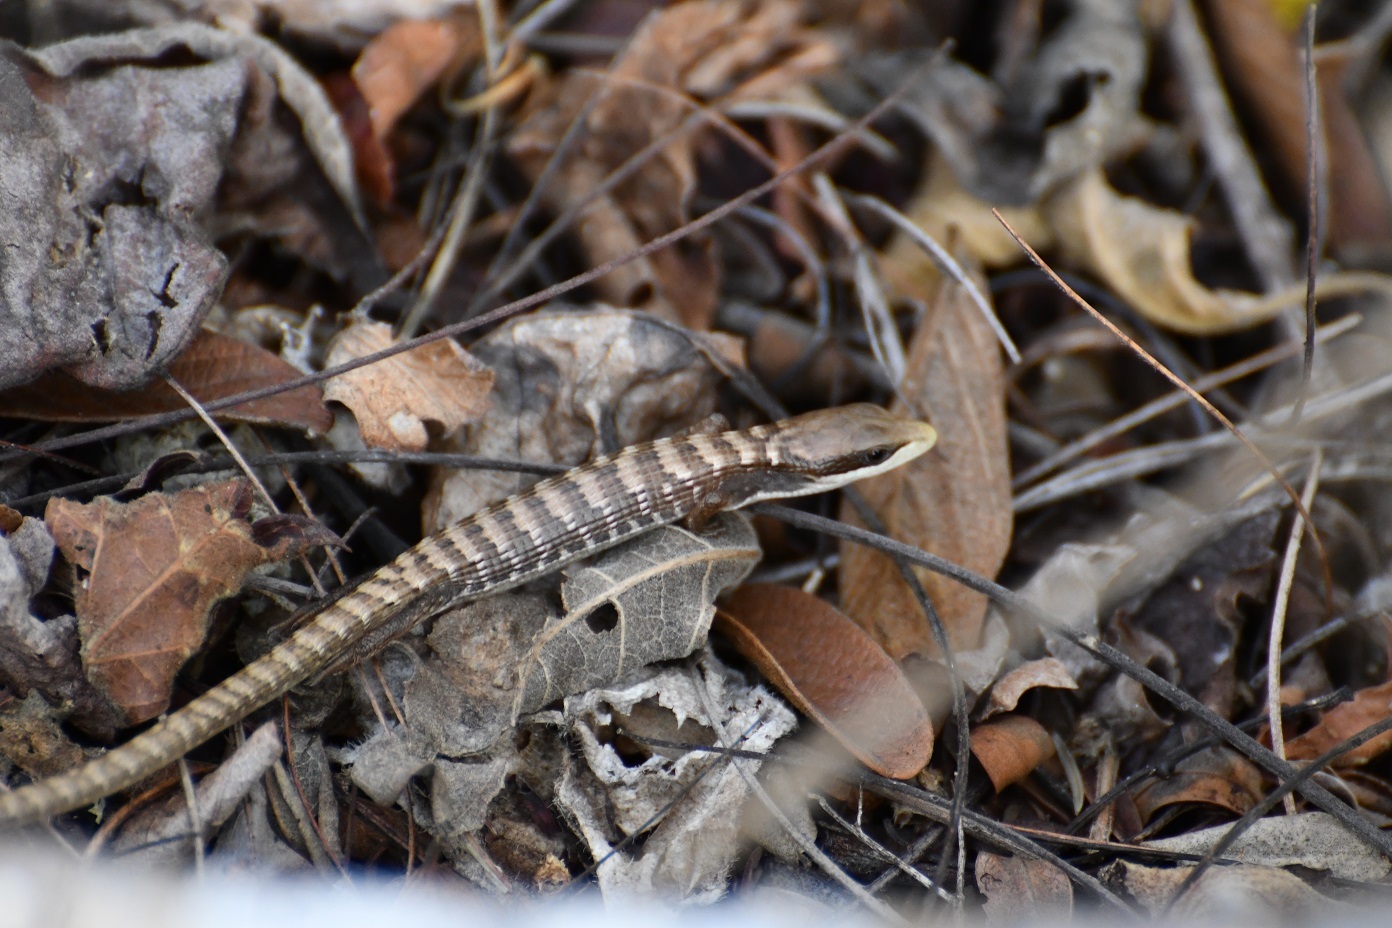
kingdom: Animalia
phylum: Chordata
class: Squamata
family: Anguidae
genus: Gerrhonotus
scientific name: Gerrhonotus liocephalus
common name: Texas alligator lizard
